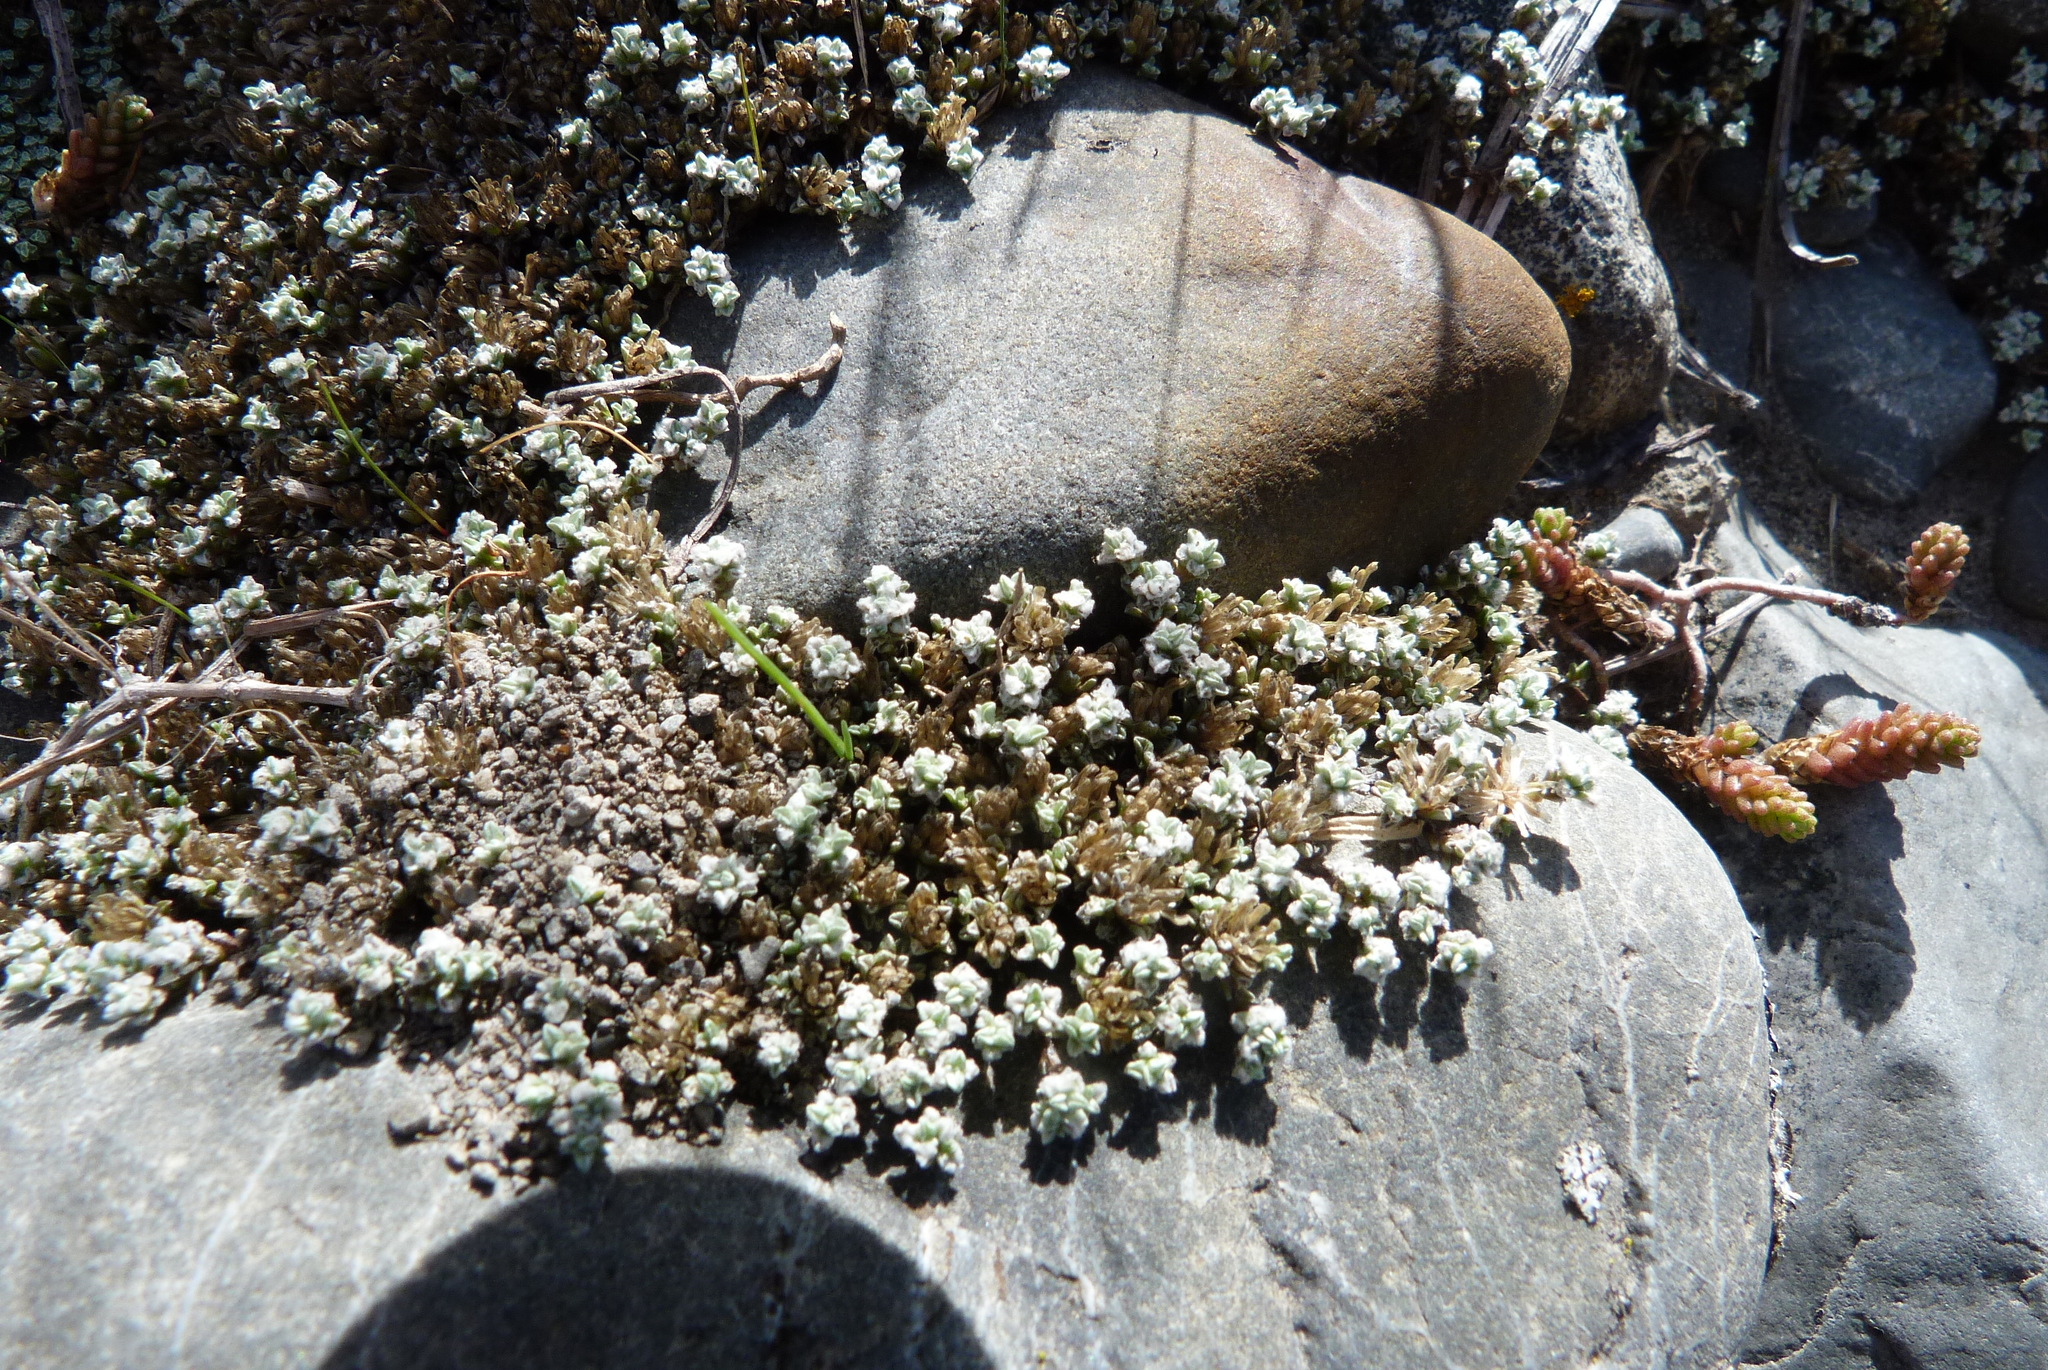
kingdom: Plantae
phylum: Tracheophyta
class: Magnoliopsida
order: Asterales
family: Asteraceae
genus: Raoulia
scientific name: Raoulia hookeri
